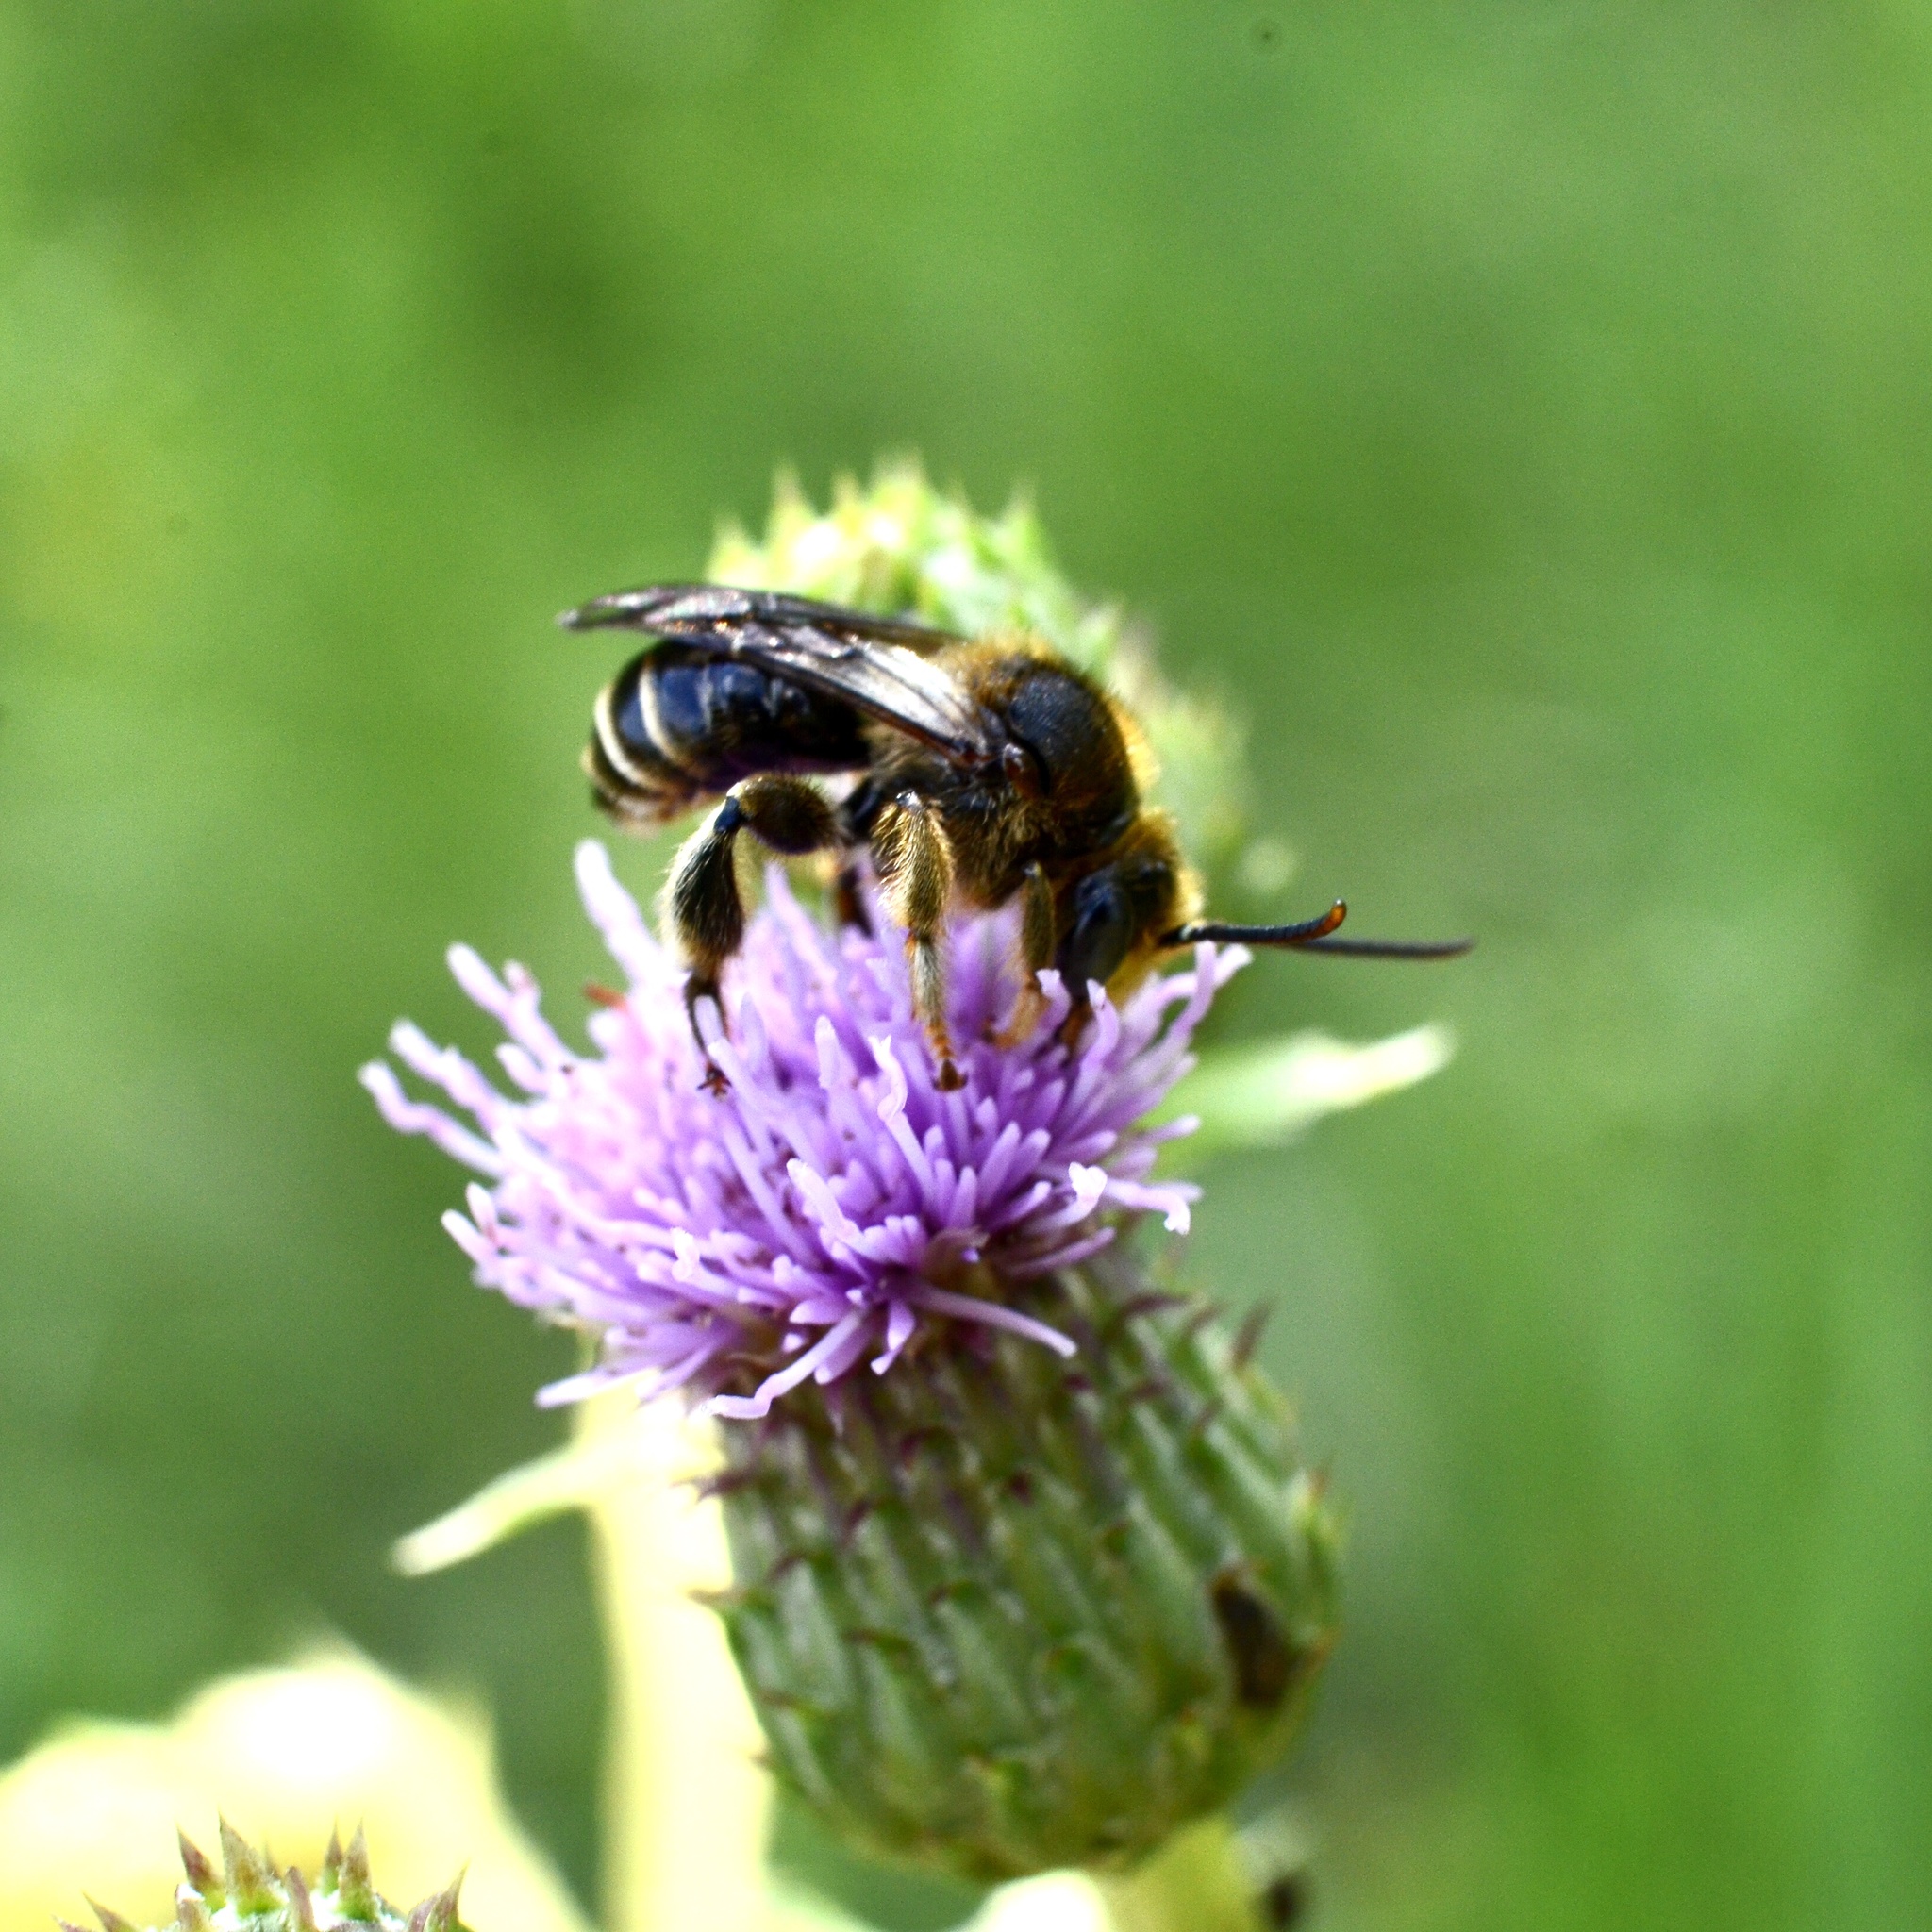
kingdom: Animalia
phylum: Arthropoda
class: Insecta
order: Hymenoptera
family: Melittidae
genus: Macropis
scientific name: Macropis
